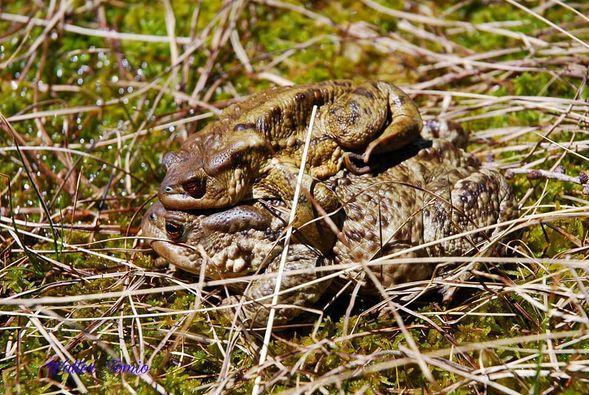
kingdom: Animalia
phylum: Chordata
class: Amphibia
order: Anura
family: Bufonidae
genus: Bufo
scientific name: Bufo bufo
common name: Common toad
